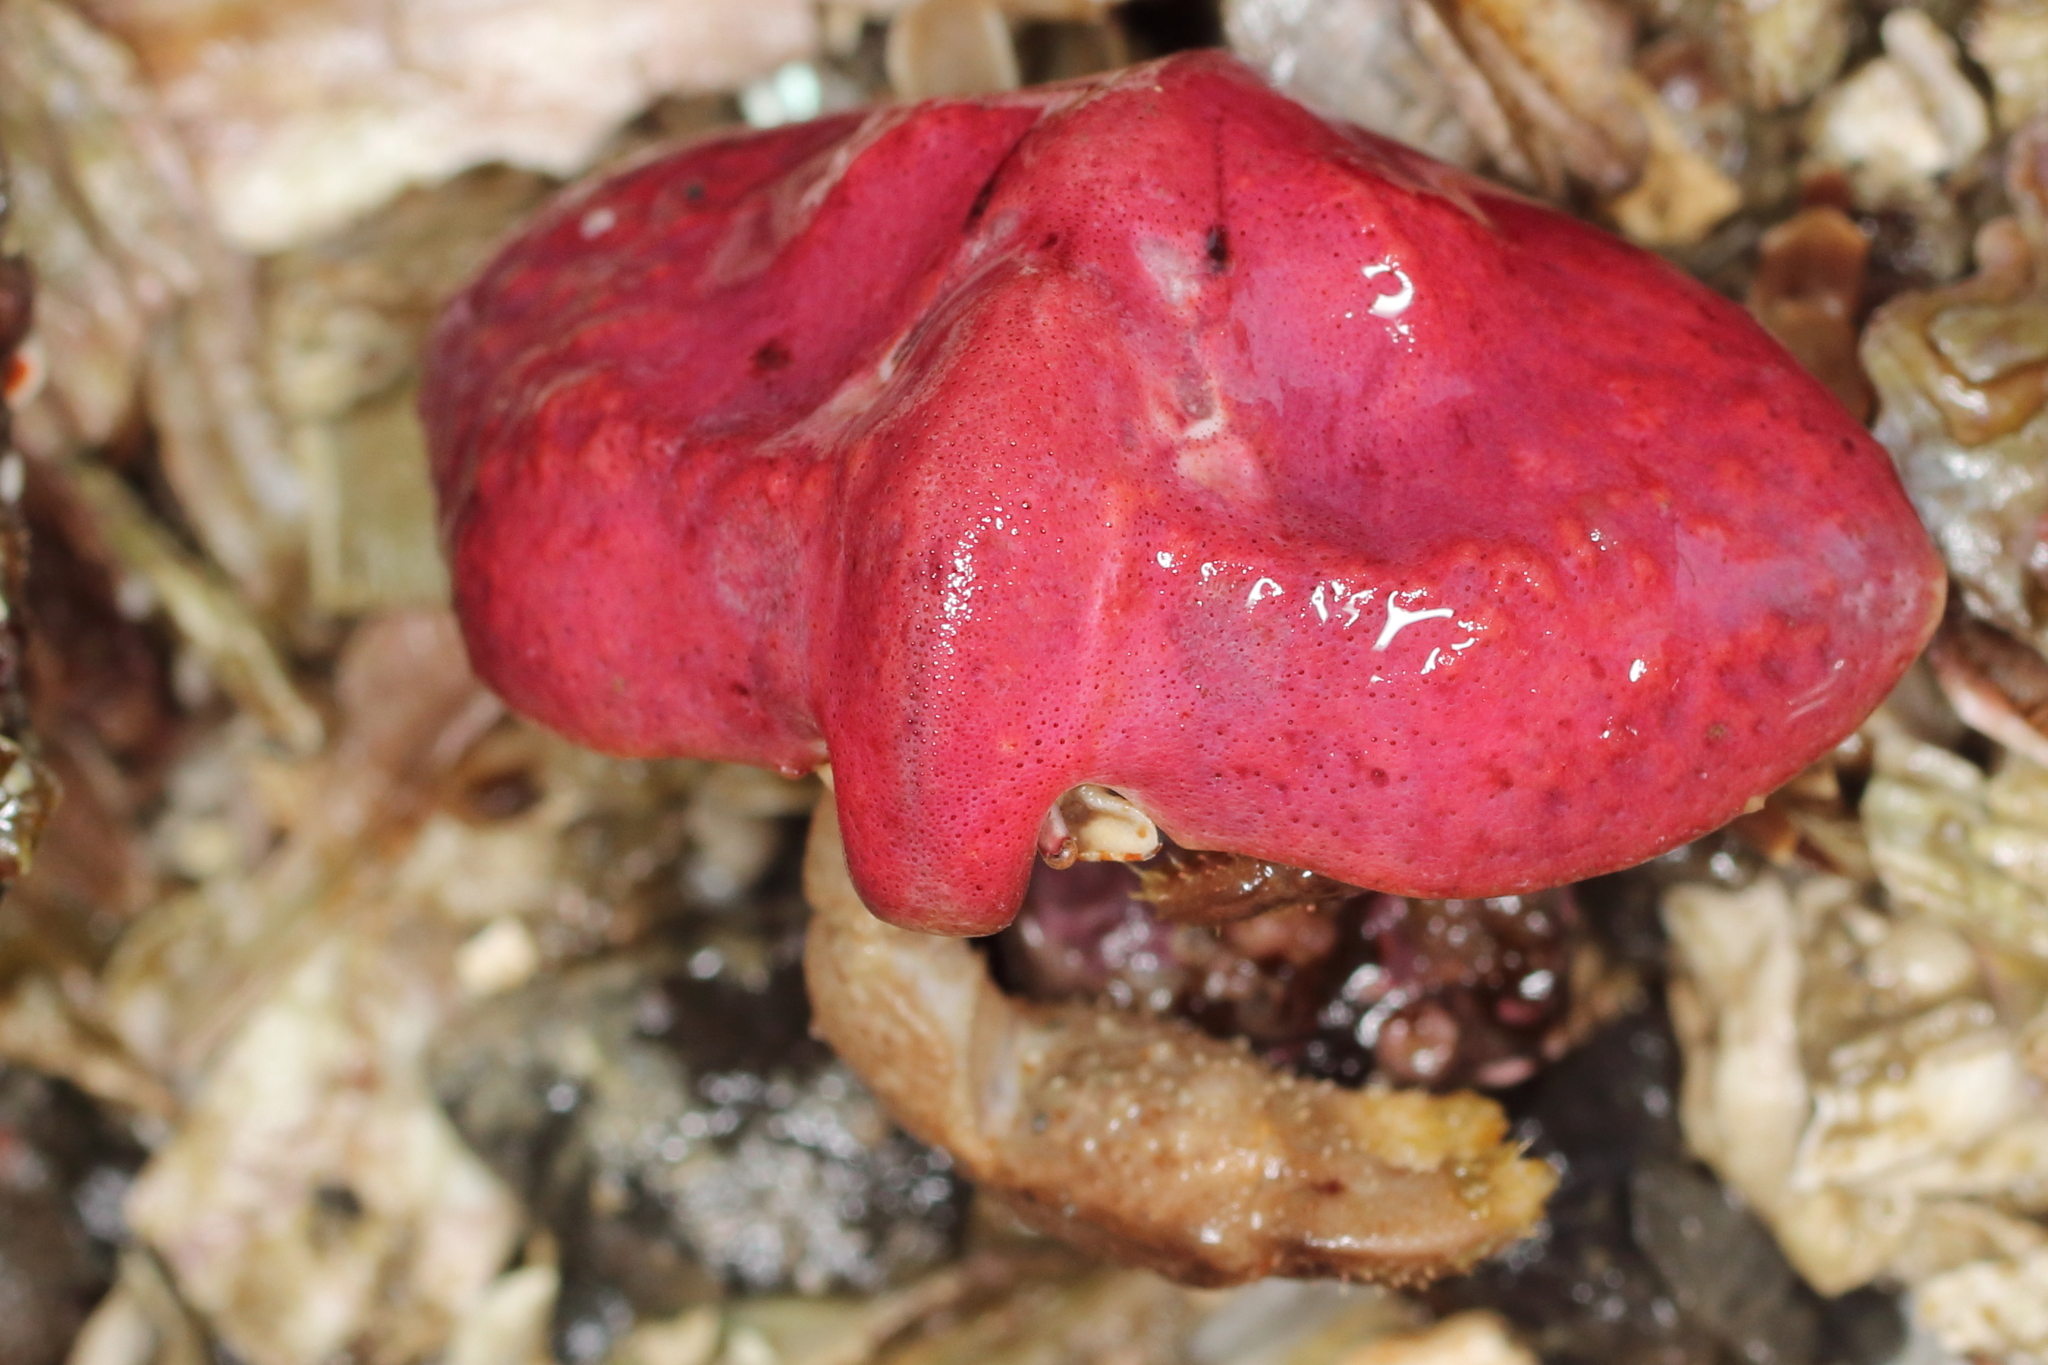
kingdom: Animalia
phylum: Arthropoda
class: Malacostraca
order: Decapoda
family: Lithodidae
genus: Cryptolithodes
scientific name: Cryptolithodes typicus
